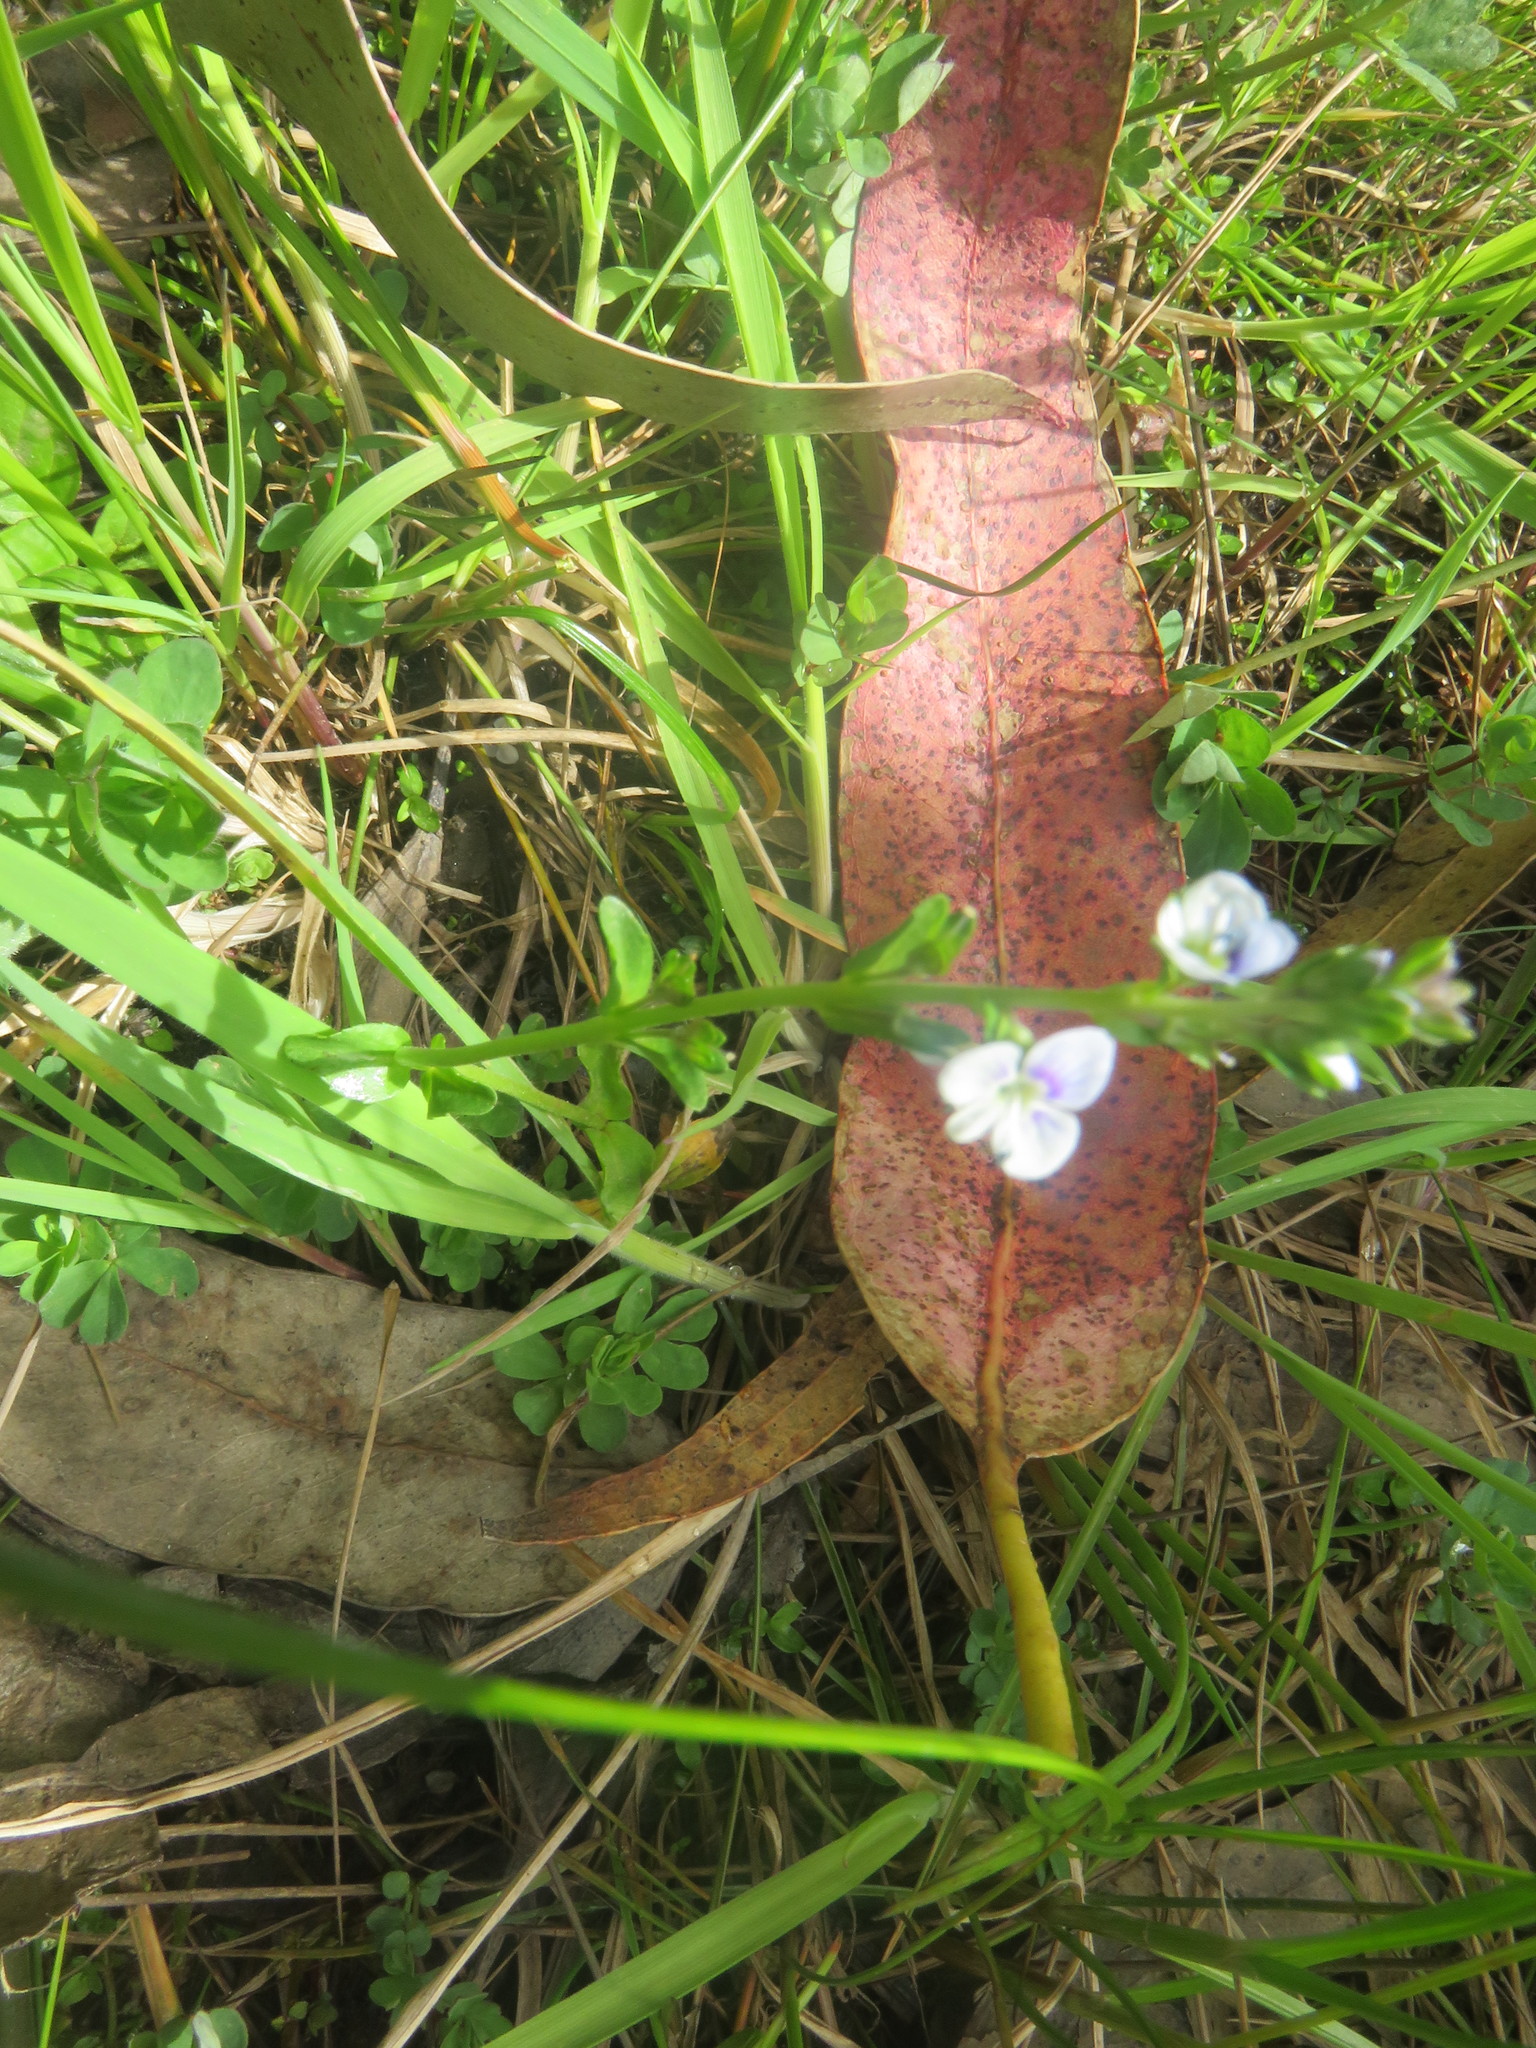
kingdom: Plantae
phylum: Tracheophyta
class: Magnoliopsida
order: Lamiales
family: Plantaginaceae
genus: Veronica
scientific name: Veronica serpyllifolia
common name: Thyme-leaved speedwell
